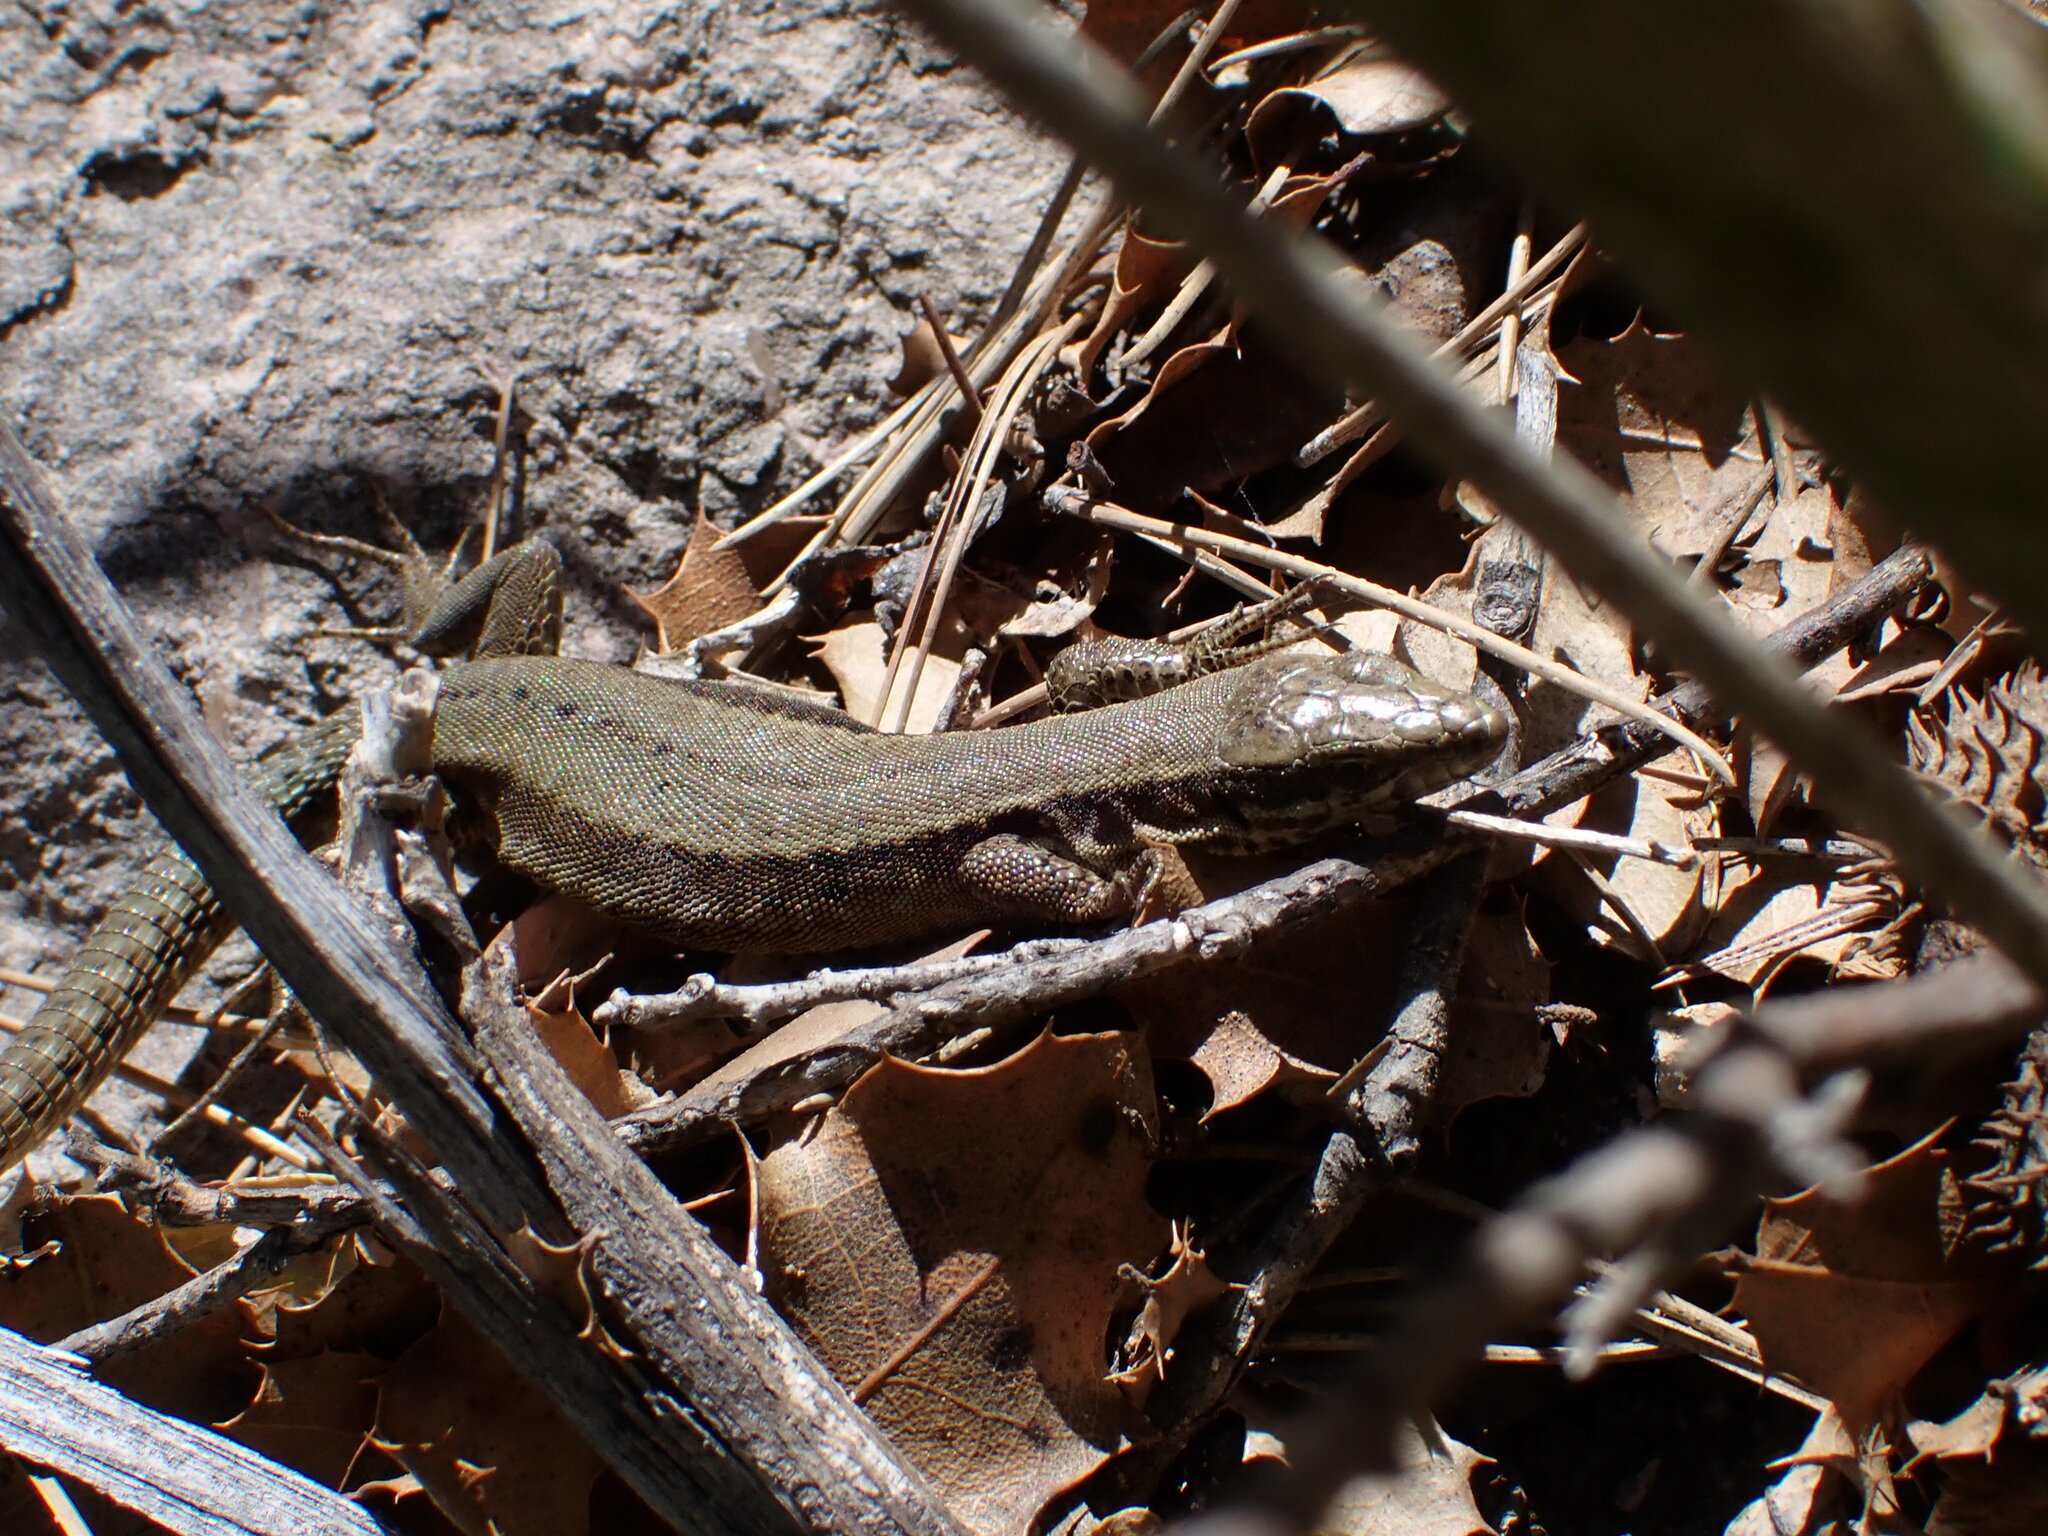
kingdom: Animalia
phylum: Chordata
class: Squamata
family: Lacertidae
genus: Podarcis
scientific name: Podarcis muralis
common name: Common wall lizard
